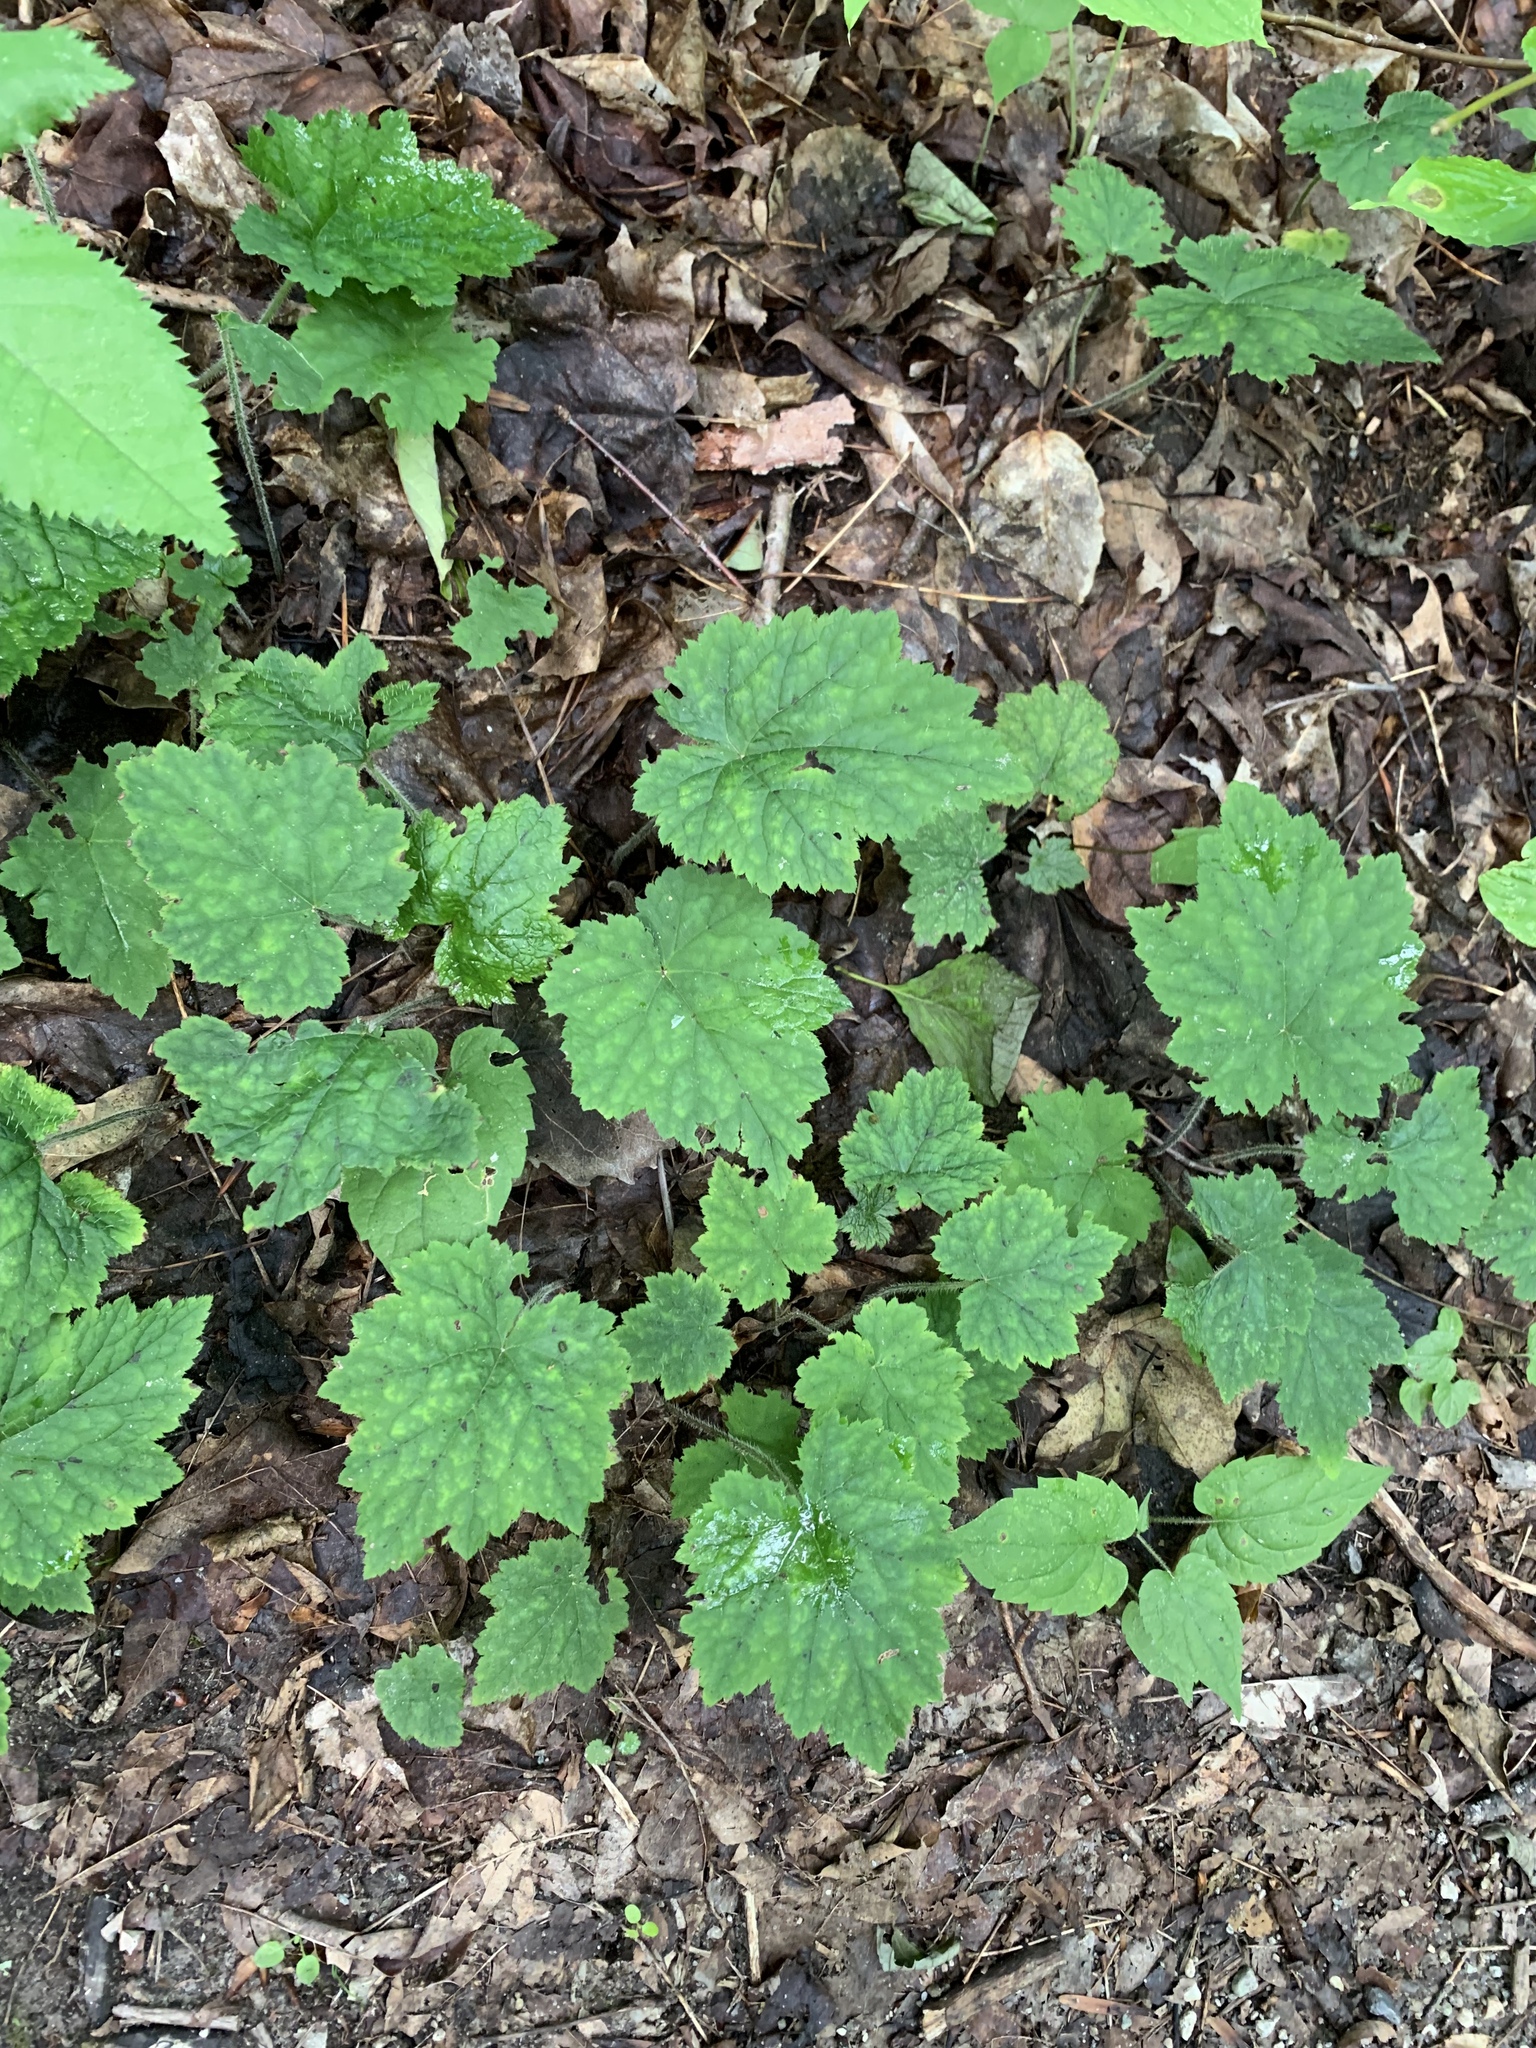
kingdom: Plantae
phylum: Tracheophyta
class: Magnoliopsida
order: Saxifragales
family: Saxifragaceae
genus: Tiarella
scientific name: Tiarella stolonifera
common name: Stoloniferous foamflower
